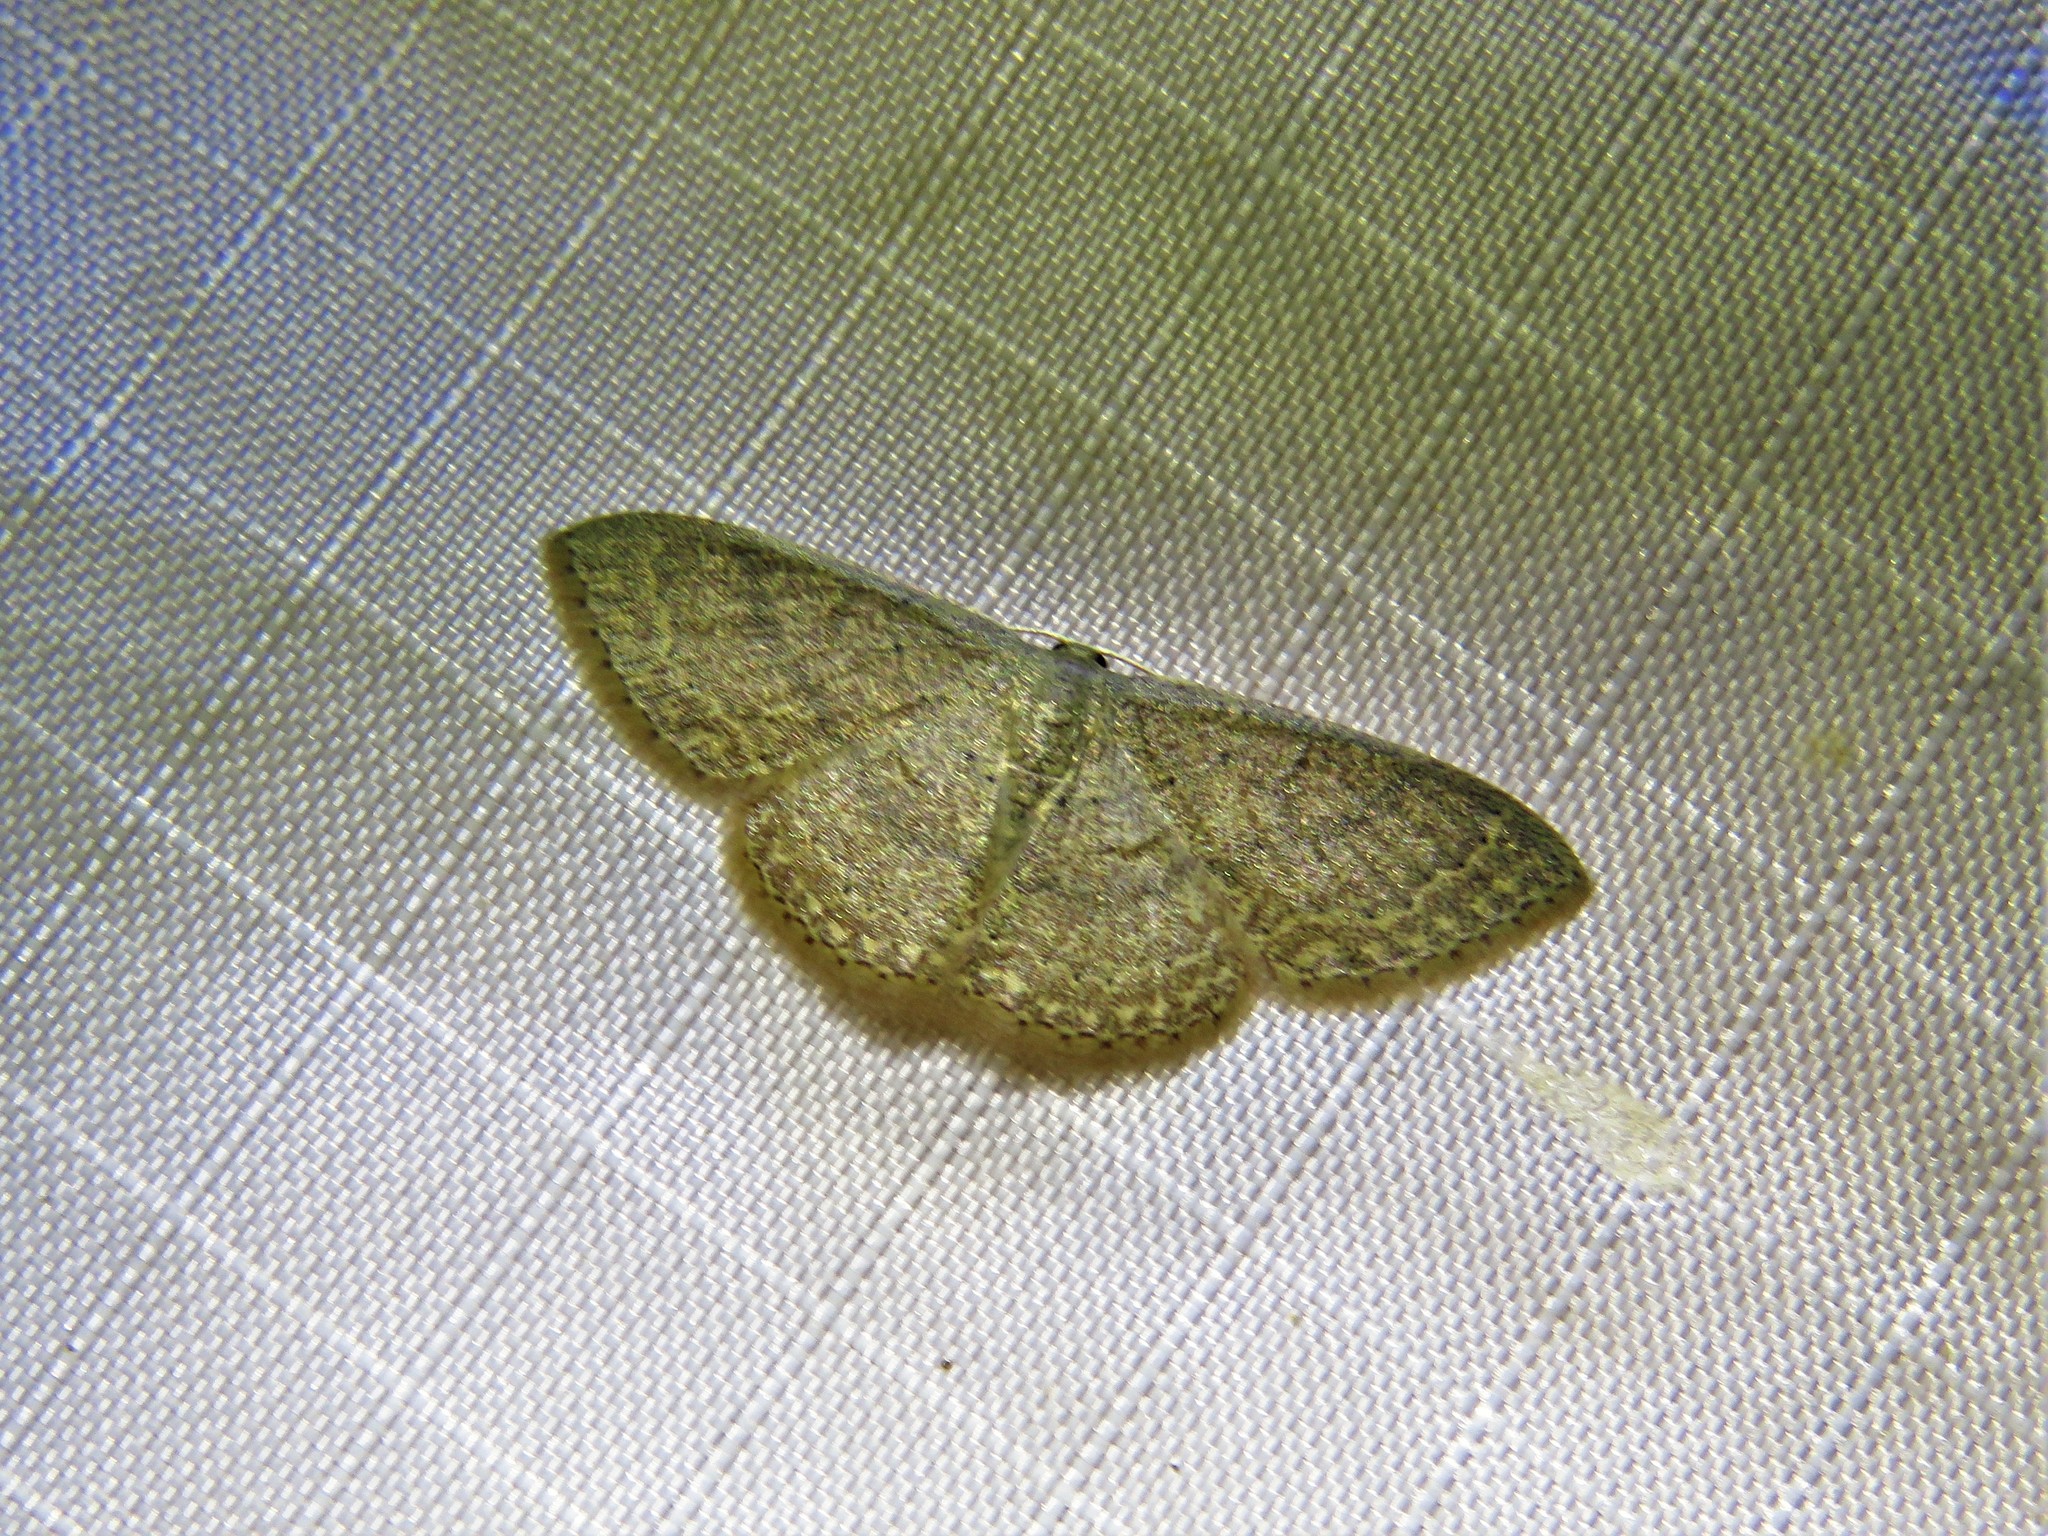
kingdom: Animalia
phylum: Arthropoda
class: Insecta
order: Lepidoptera
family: Geometridae
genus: Pleuroprucha
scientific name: Pleuroprucha insulsaria
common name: Common tan wave
